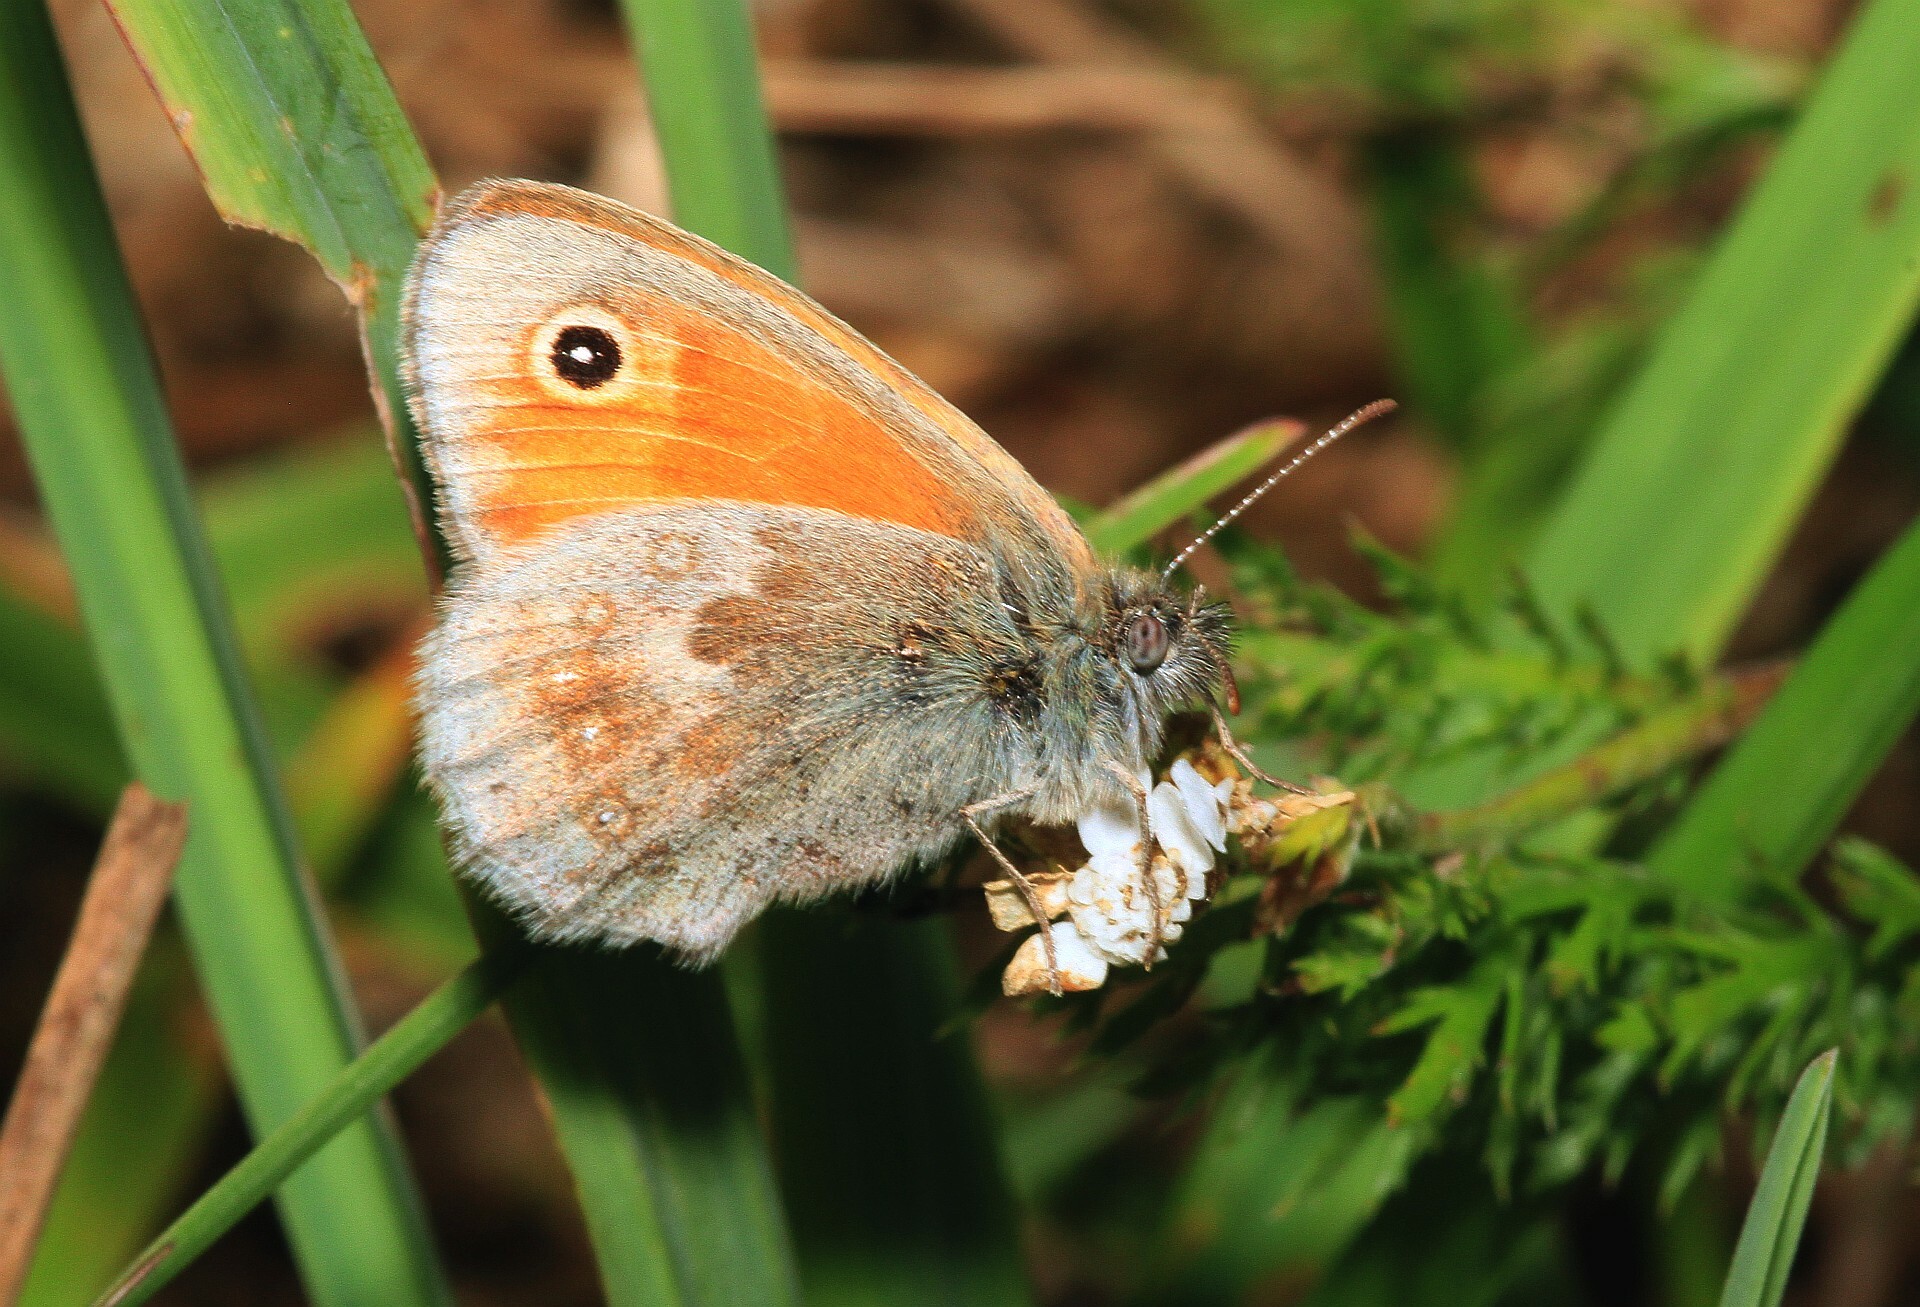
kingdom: Animalia
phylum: Arthropoda
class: Insecta
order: Lepidoptera
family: Nymphalidae
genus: Coenonympha
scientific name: Coenonympha pamphilus
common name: Small heath
